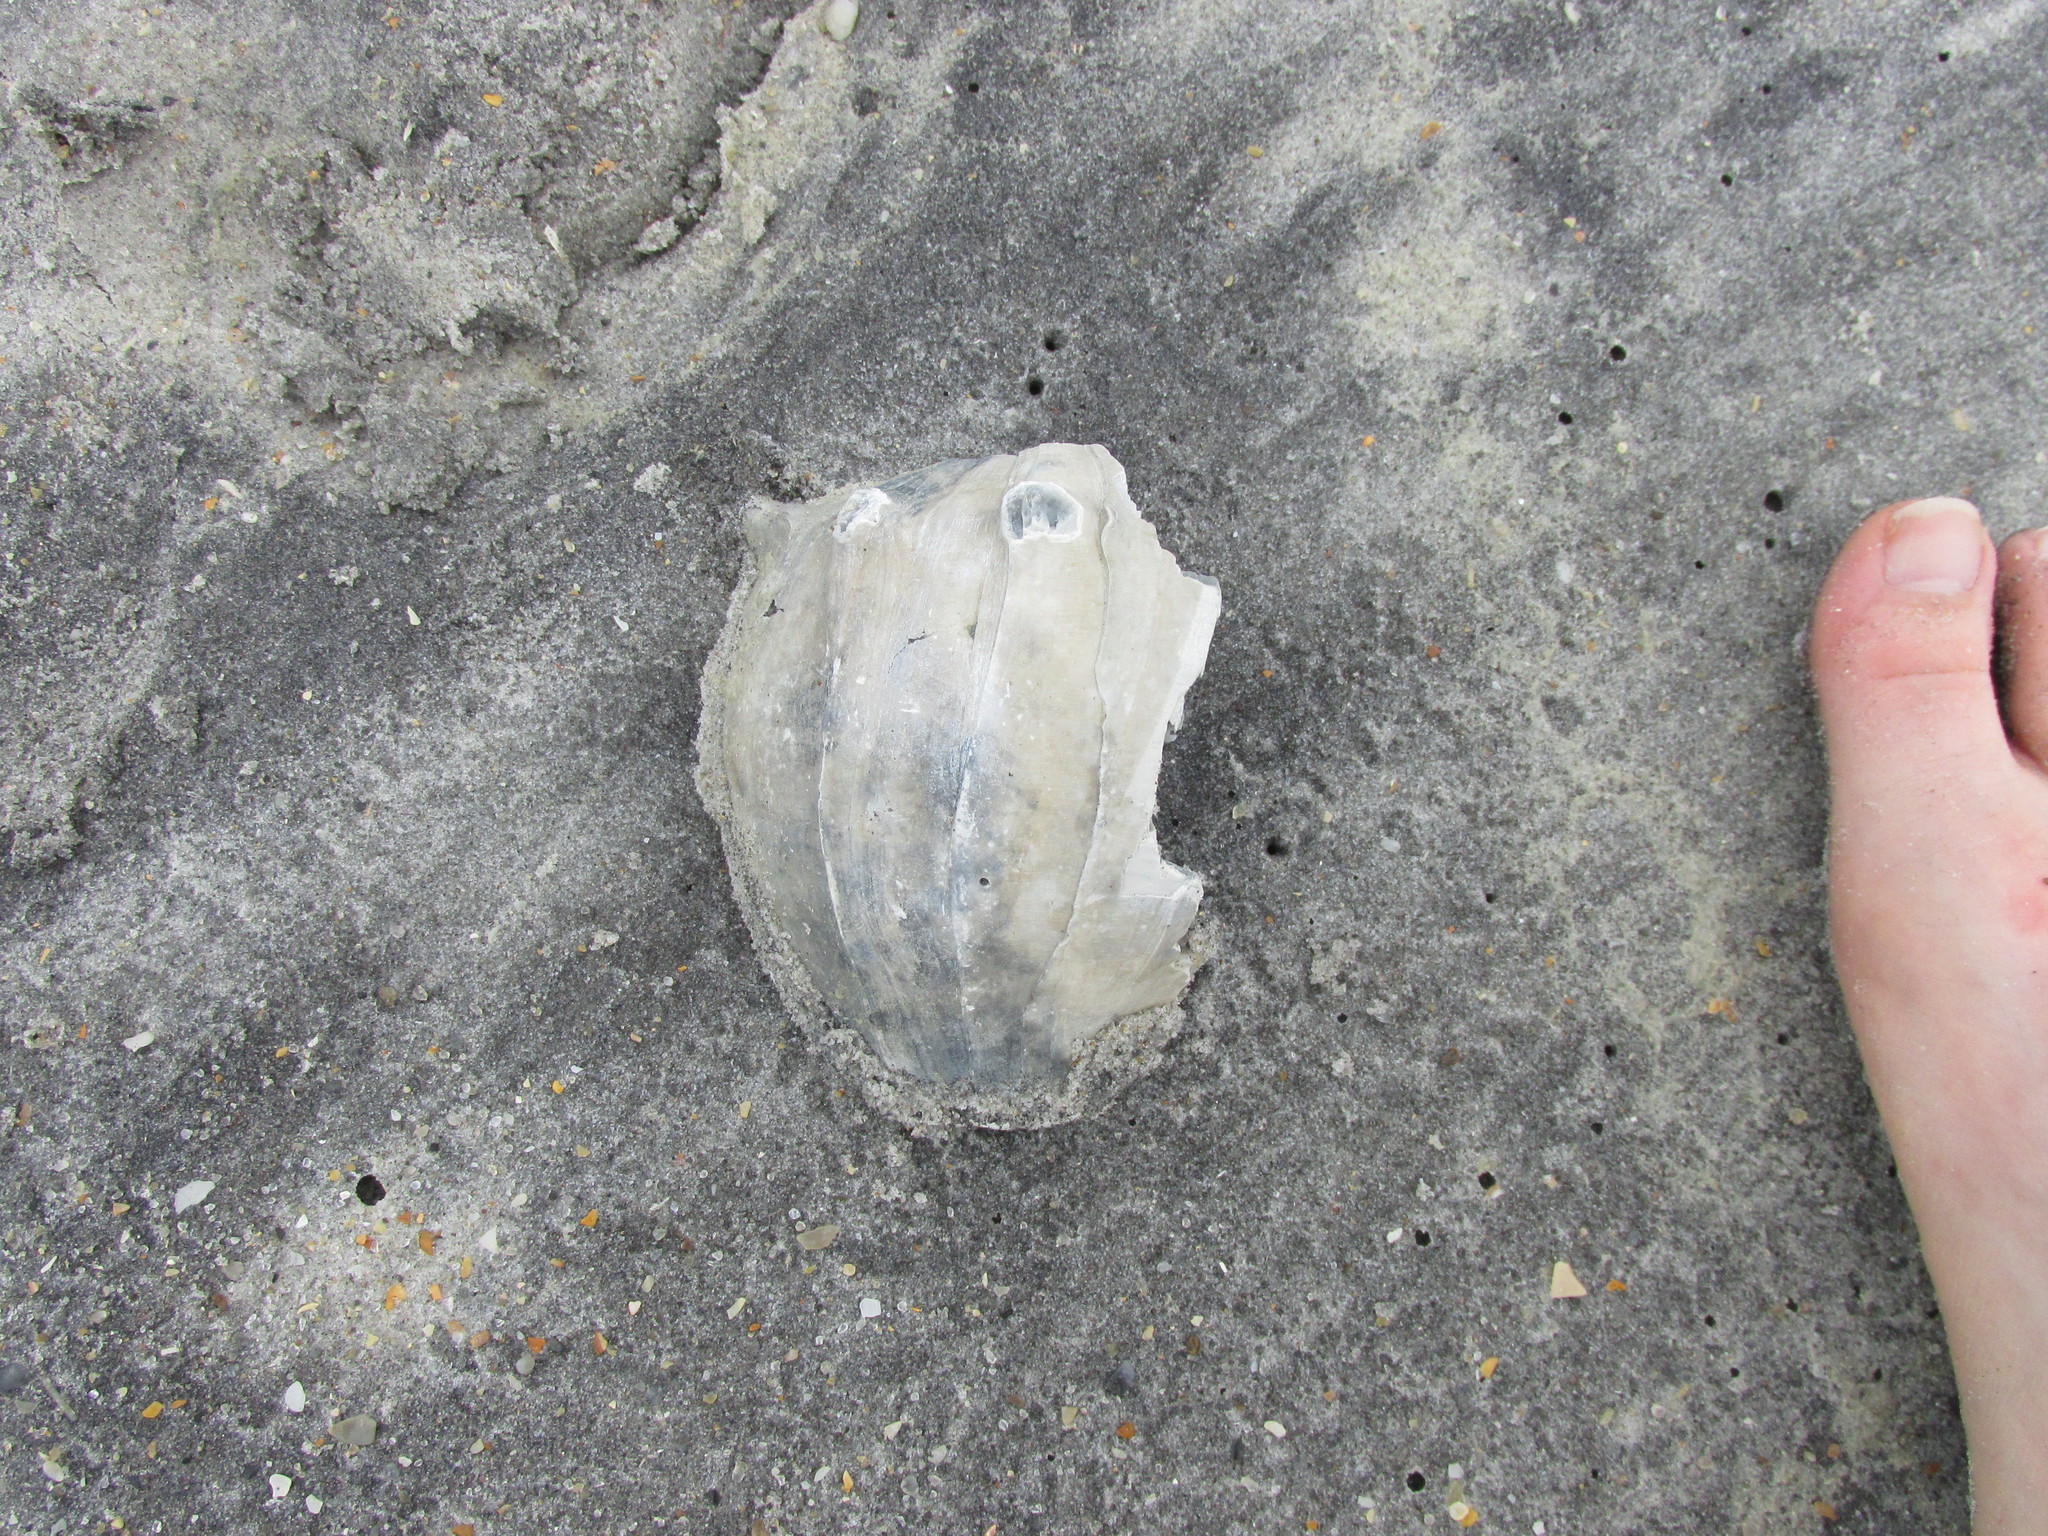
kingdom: Animalia
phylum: Mollusca
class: Gastropoda
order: Neogastropoda
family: Busyconidae
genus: Busycon
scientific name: Busycon carica
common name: Knobbed whelk
